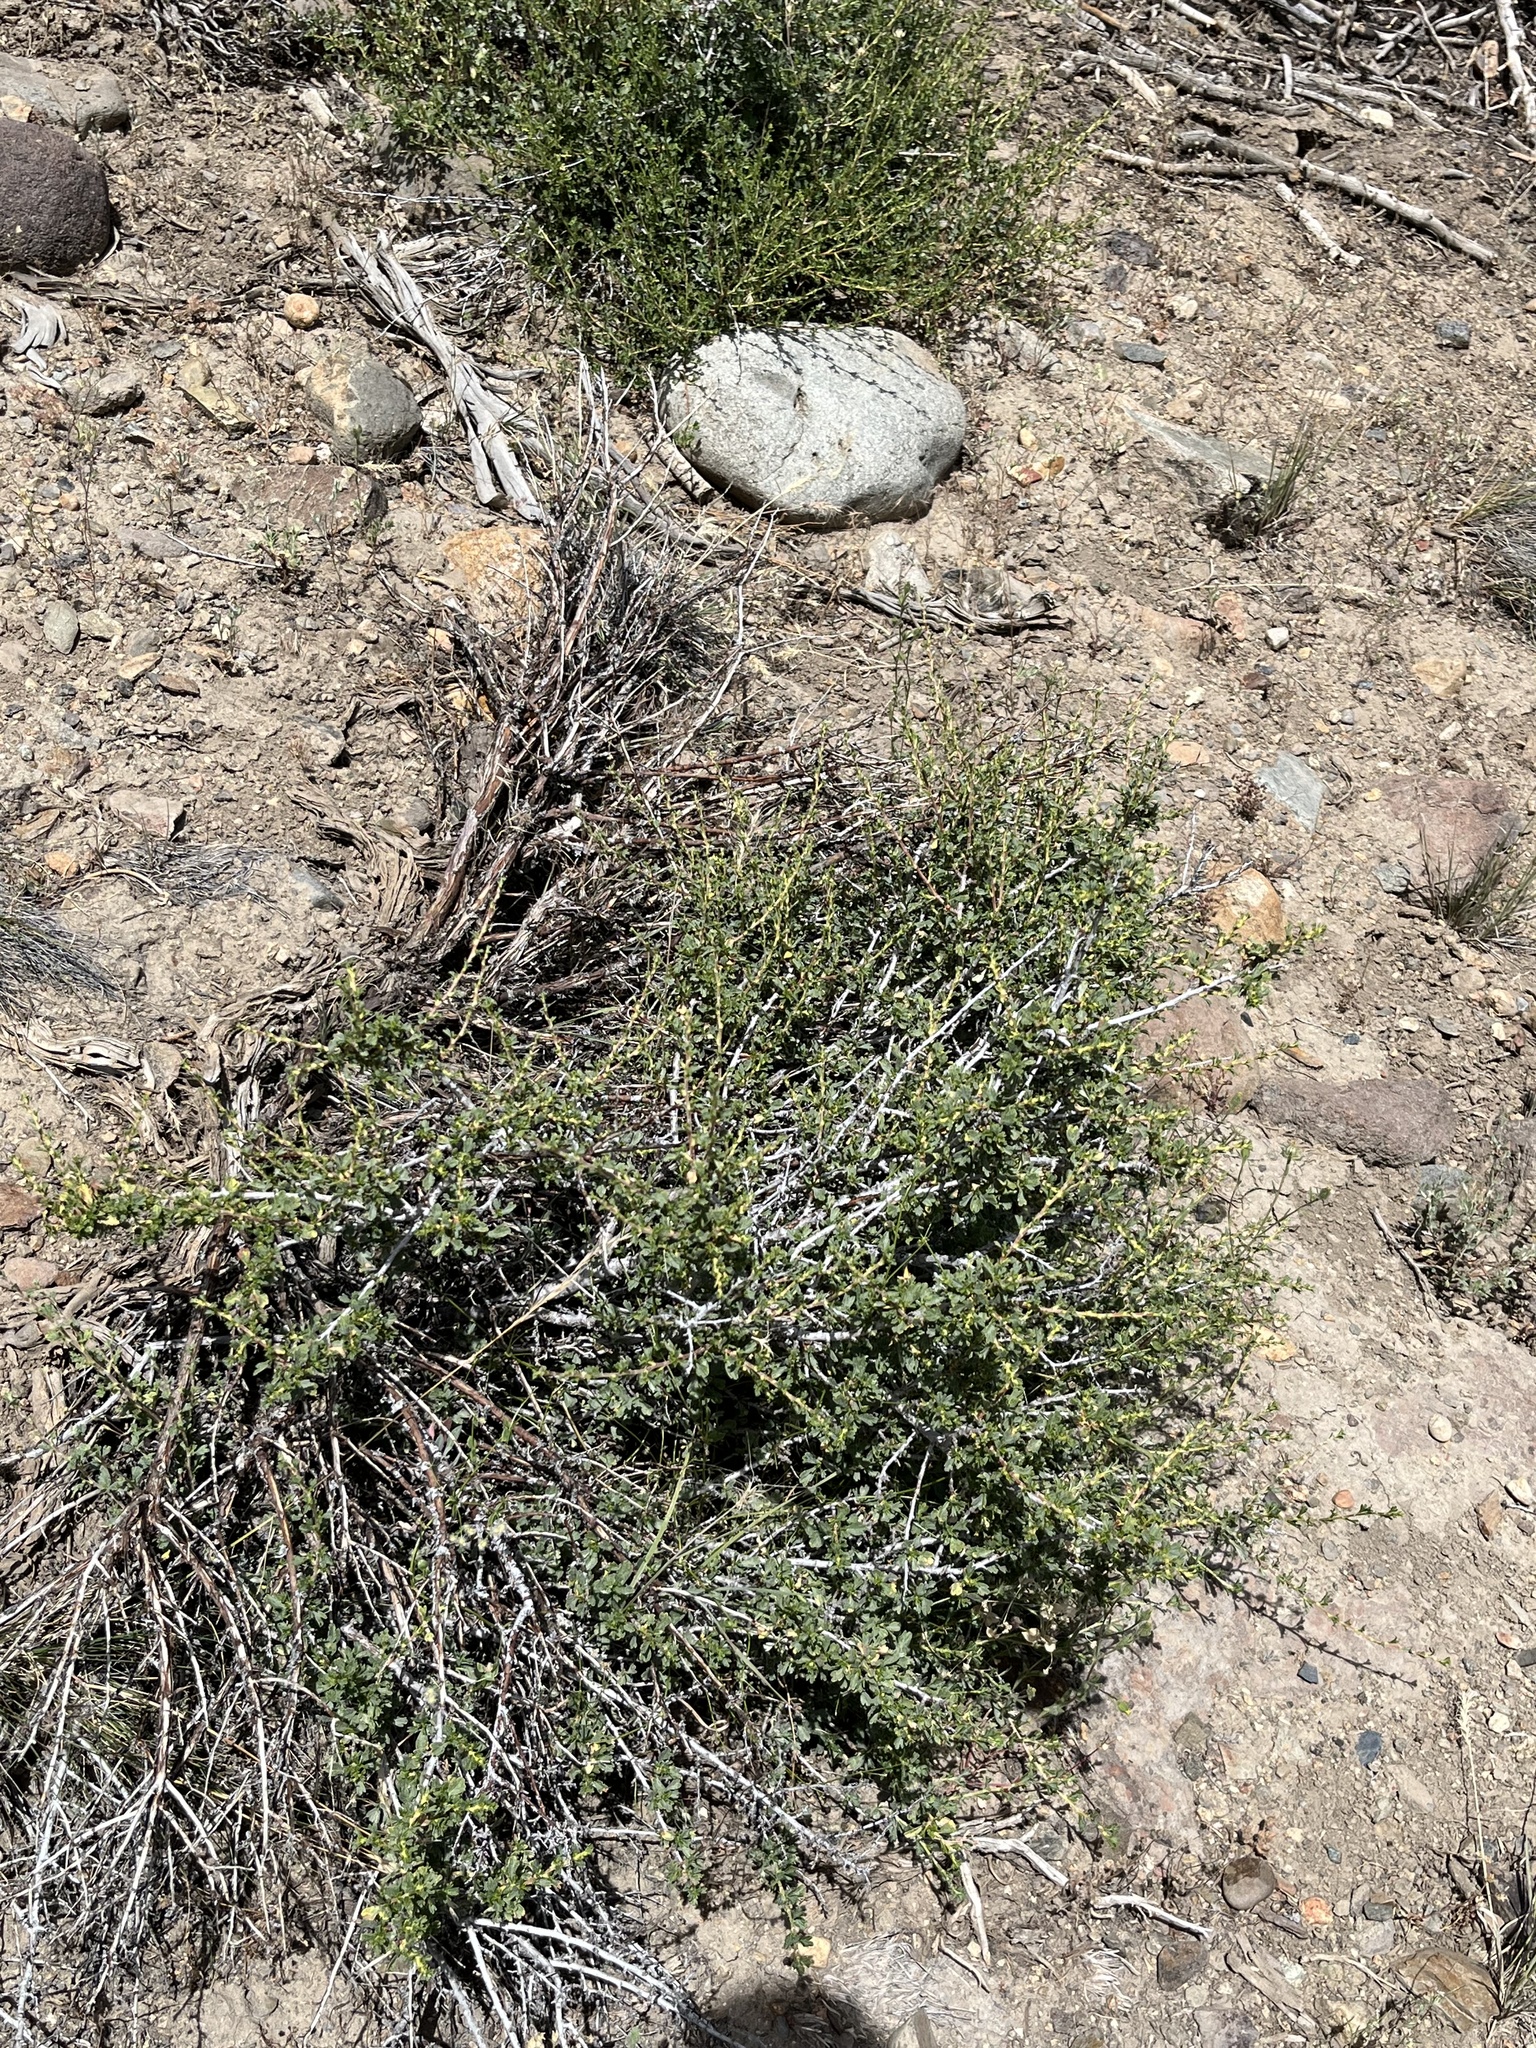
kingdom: Plantae
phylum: Tracheophyta
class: Magnoliopsida
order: Rosales
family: Rosaceae
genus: Purshia
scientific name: Purshia tridentata
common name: Antelope bitterbrush
